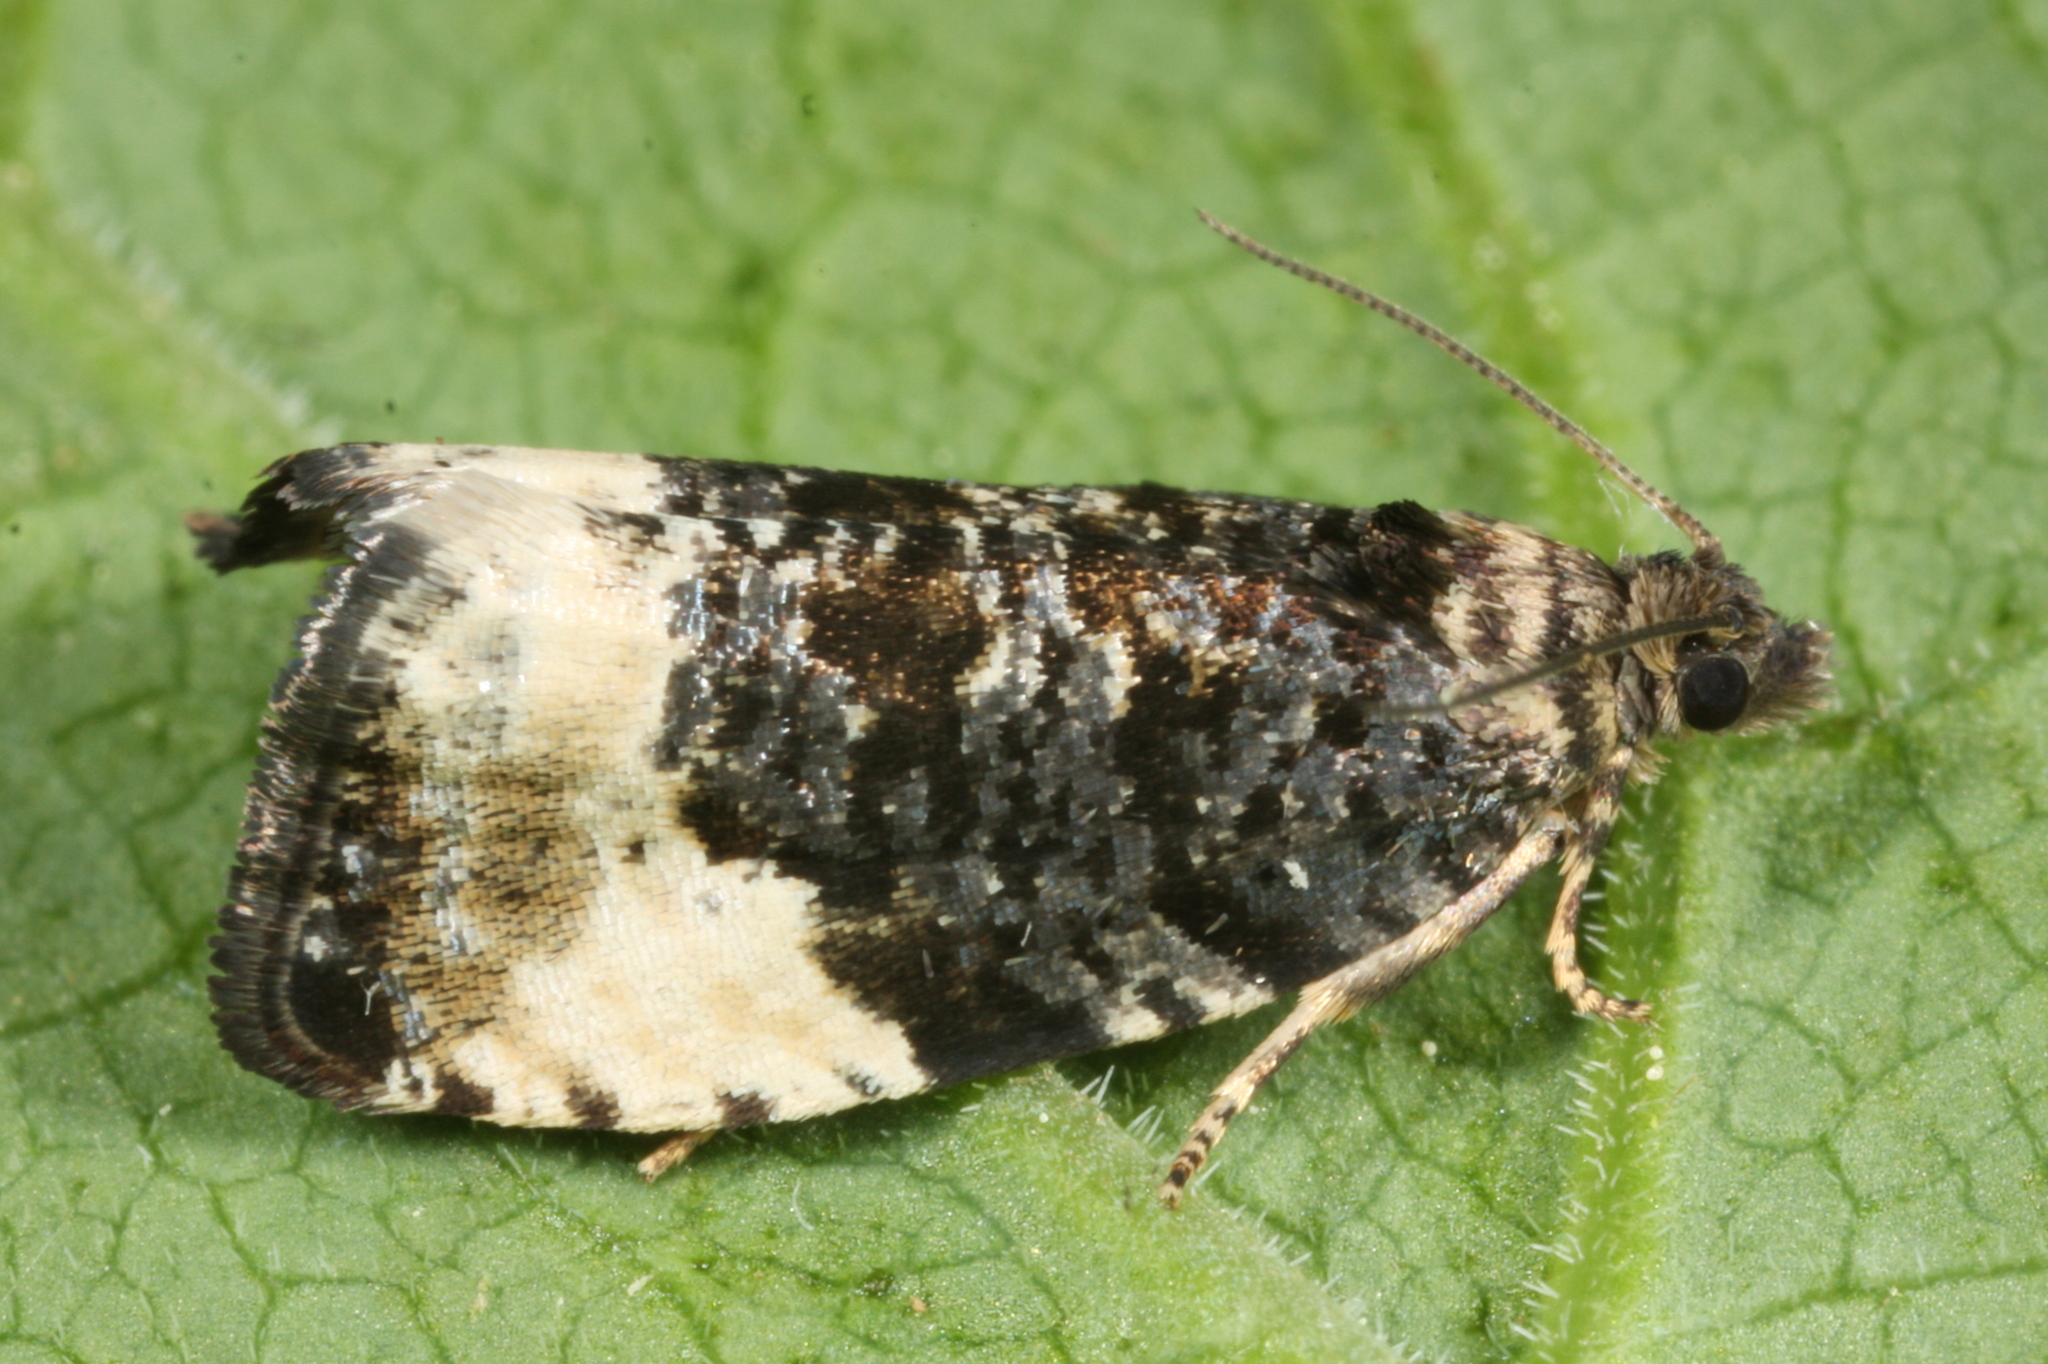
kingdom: Animalia
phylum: Arthropoda
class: Insecta
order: Lepidoptera
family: Tortricidae
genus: Hedya
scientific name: Hedya pruniana
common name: Plum tortrix
